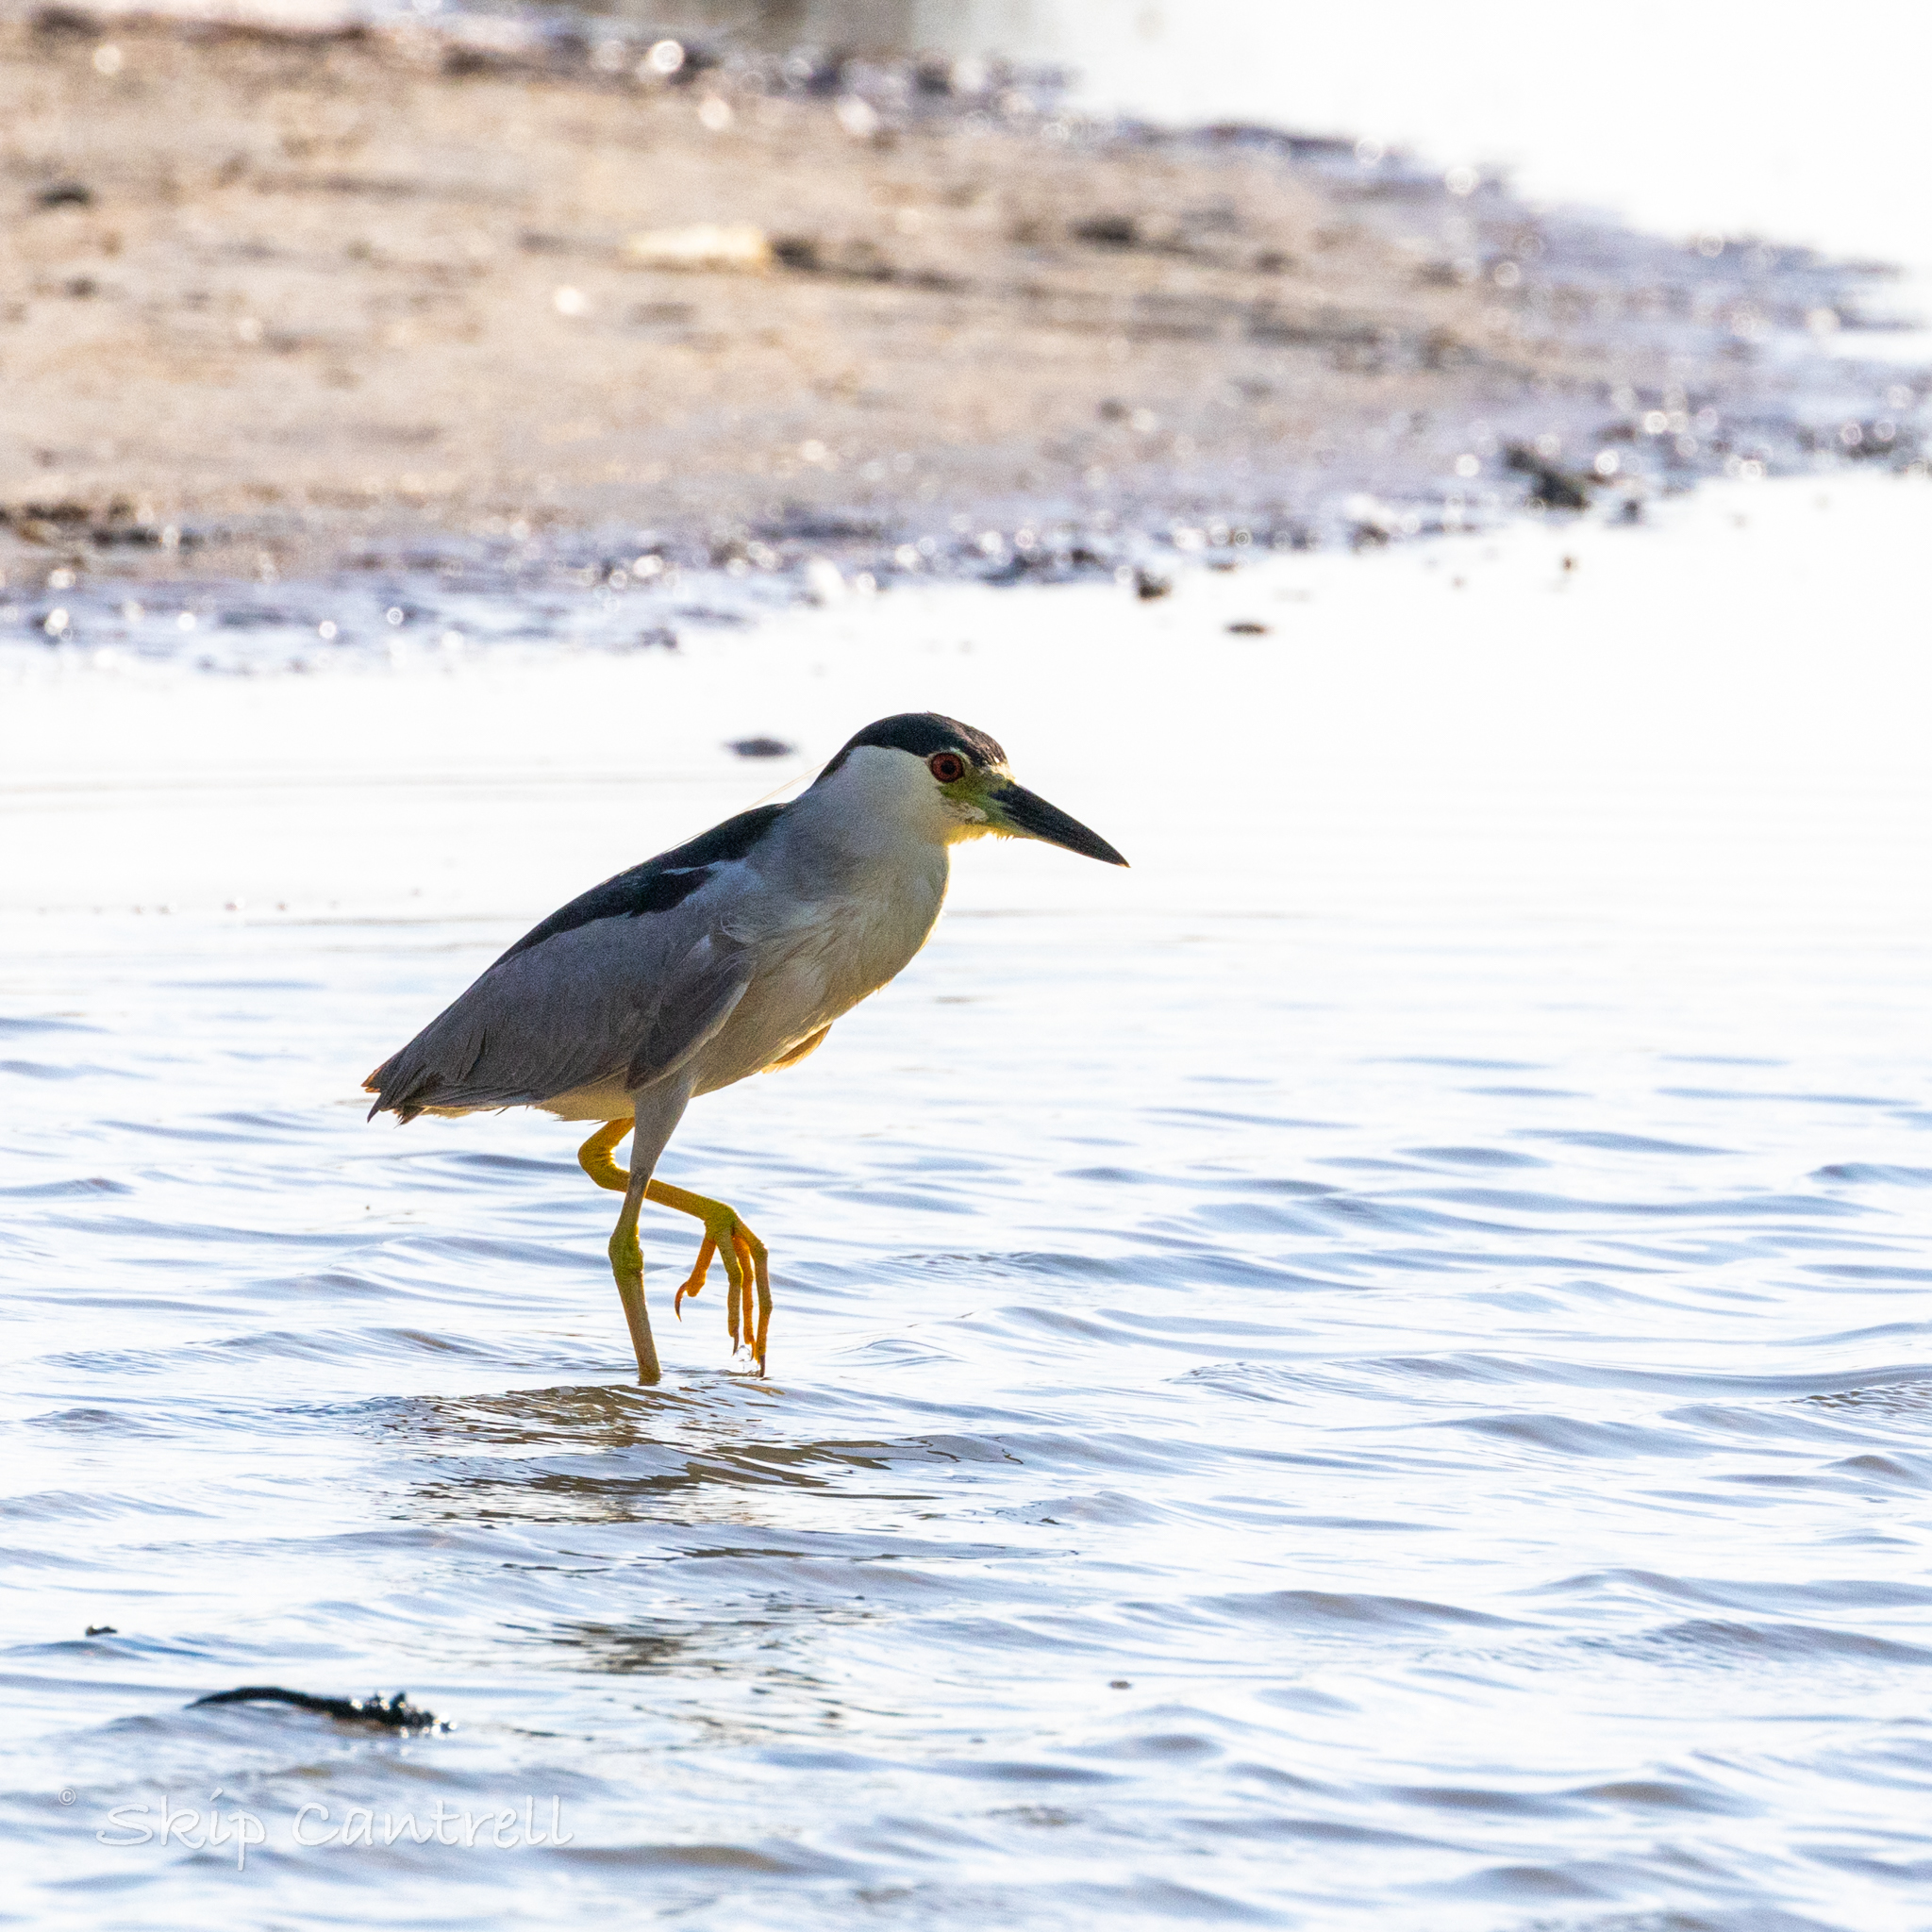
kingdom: Animalia
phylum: Chordata
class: Aves
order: Pelecaniformes
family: Ardeidae
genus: Nycticorax
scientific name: Nycticorax nycticorax
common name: Black-crowned night heron
